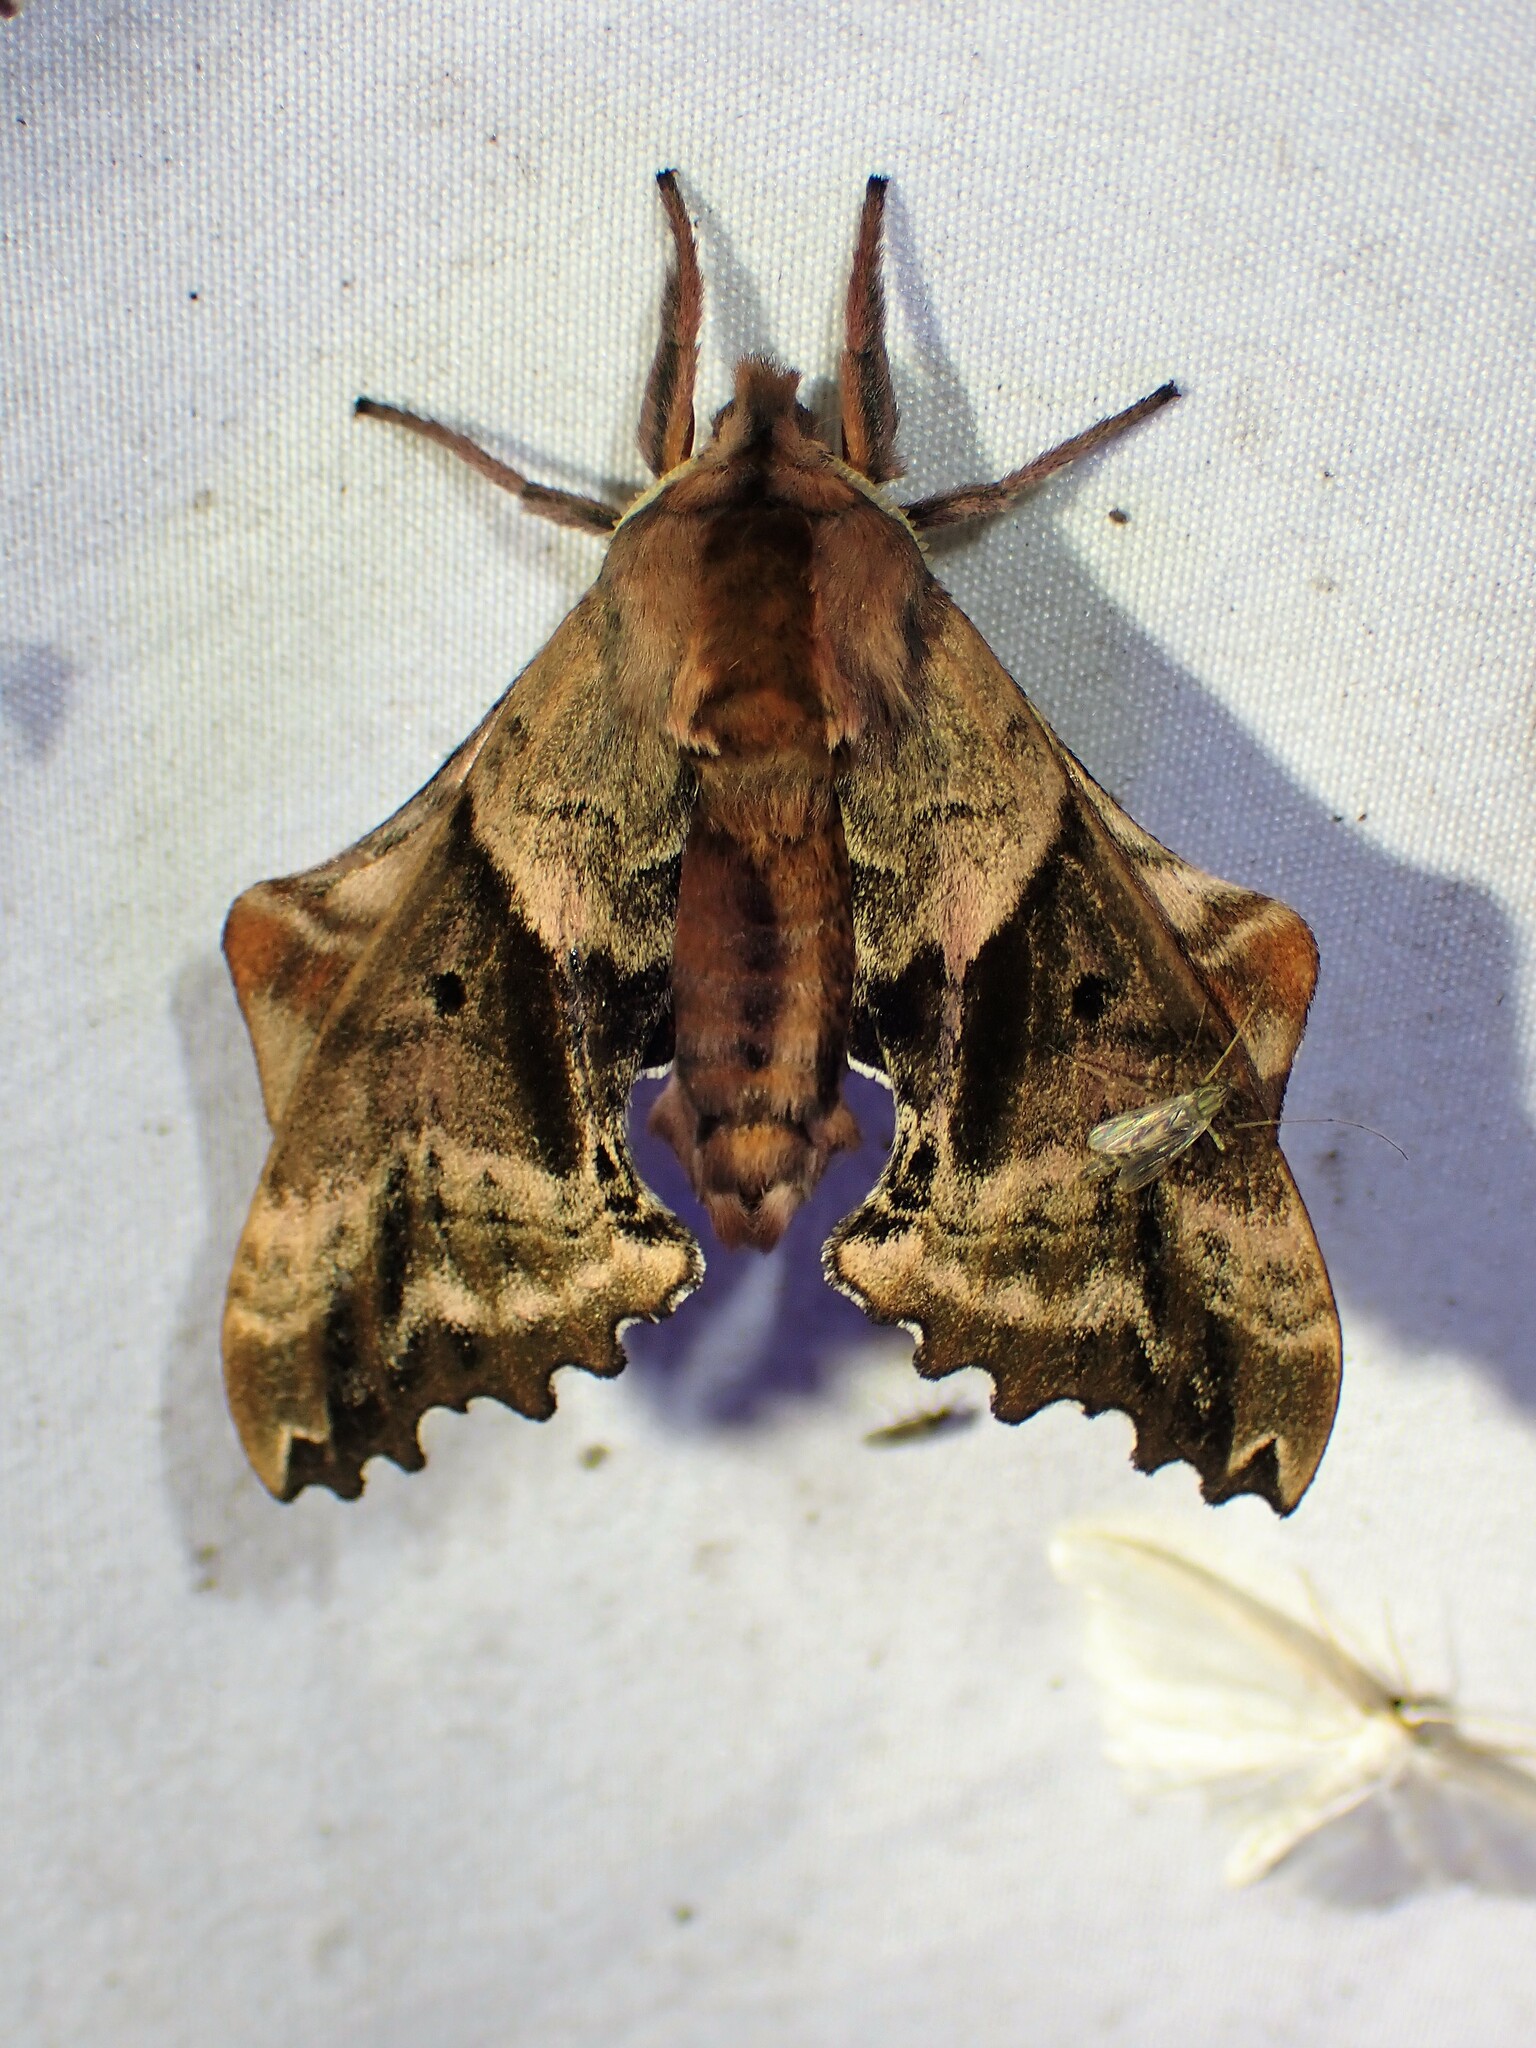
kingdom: Animalia
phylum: Arthropoda
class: Insecta
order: Lepidoptera
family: Sphingidae
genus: Paonias
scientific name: Paonias excaecata
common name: Blind-eyed sphinx
